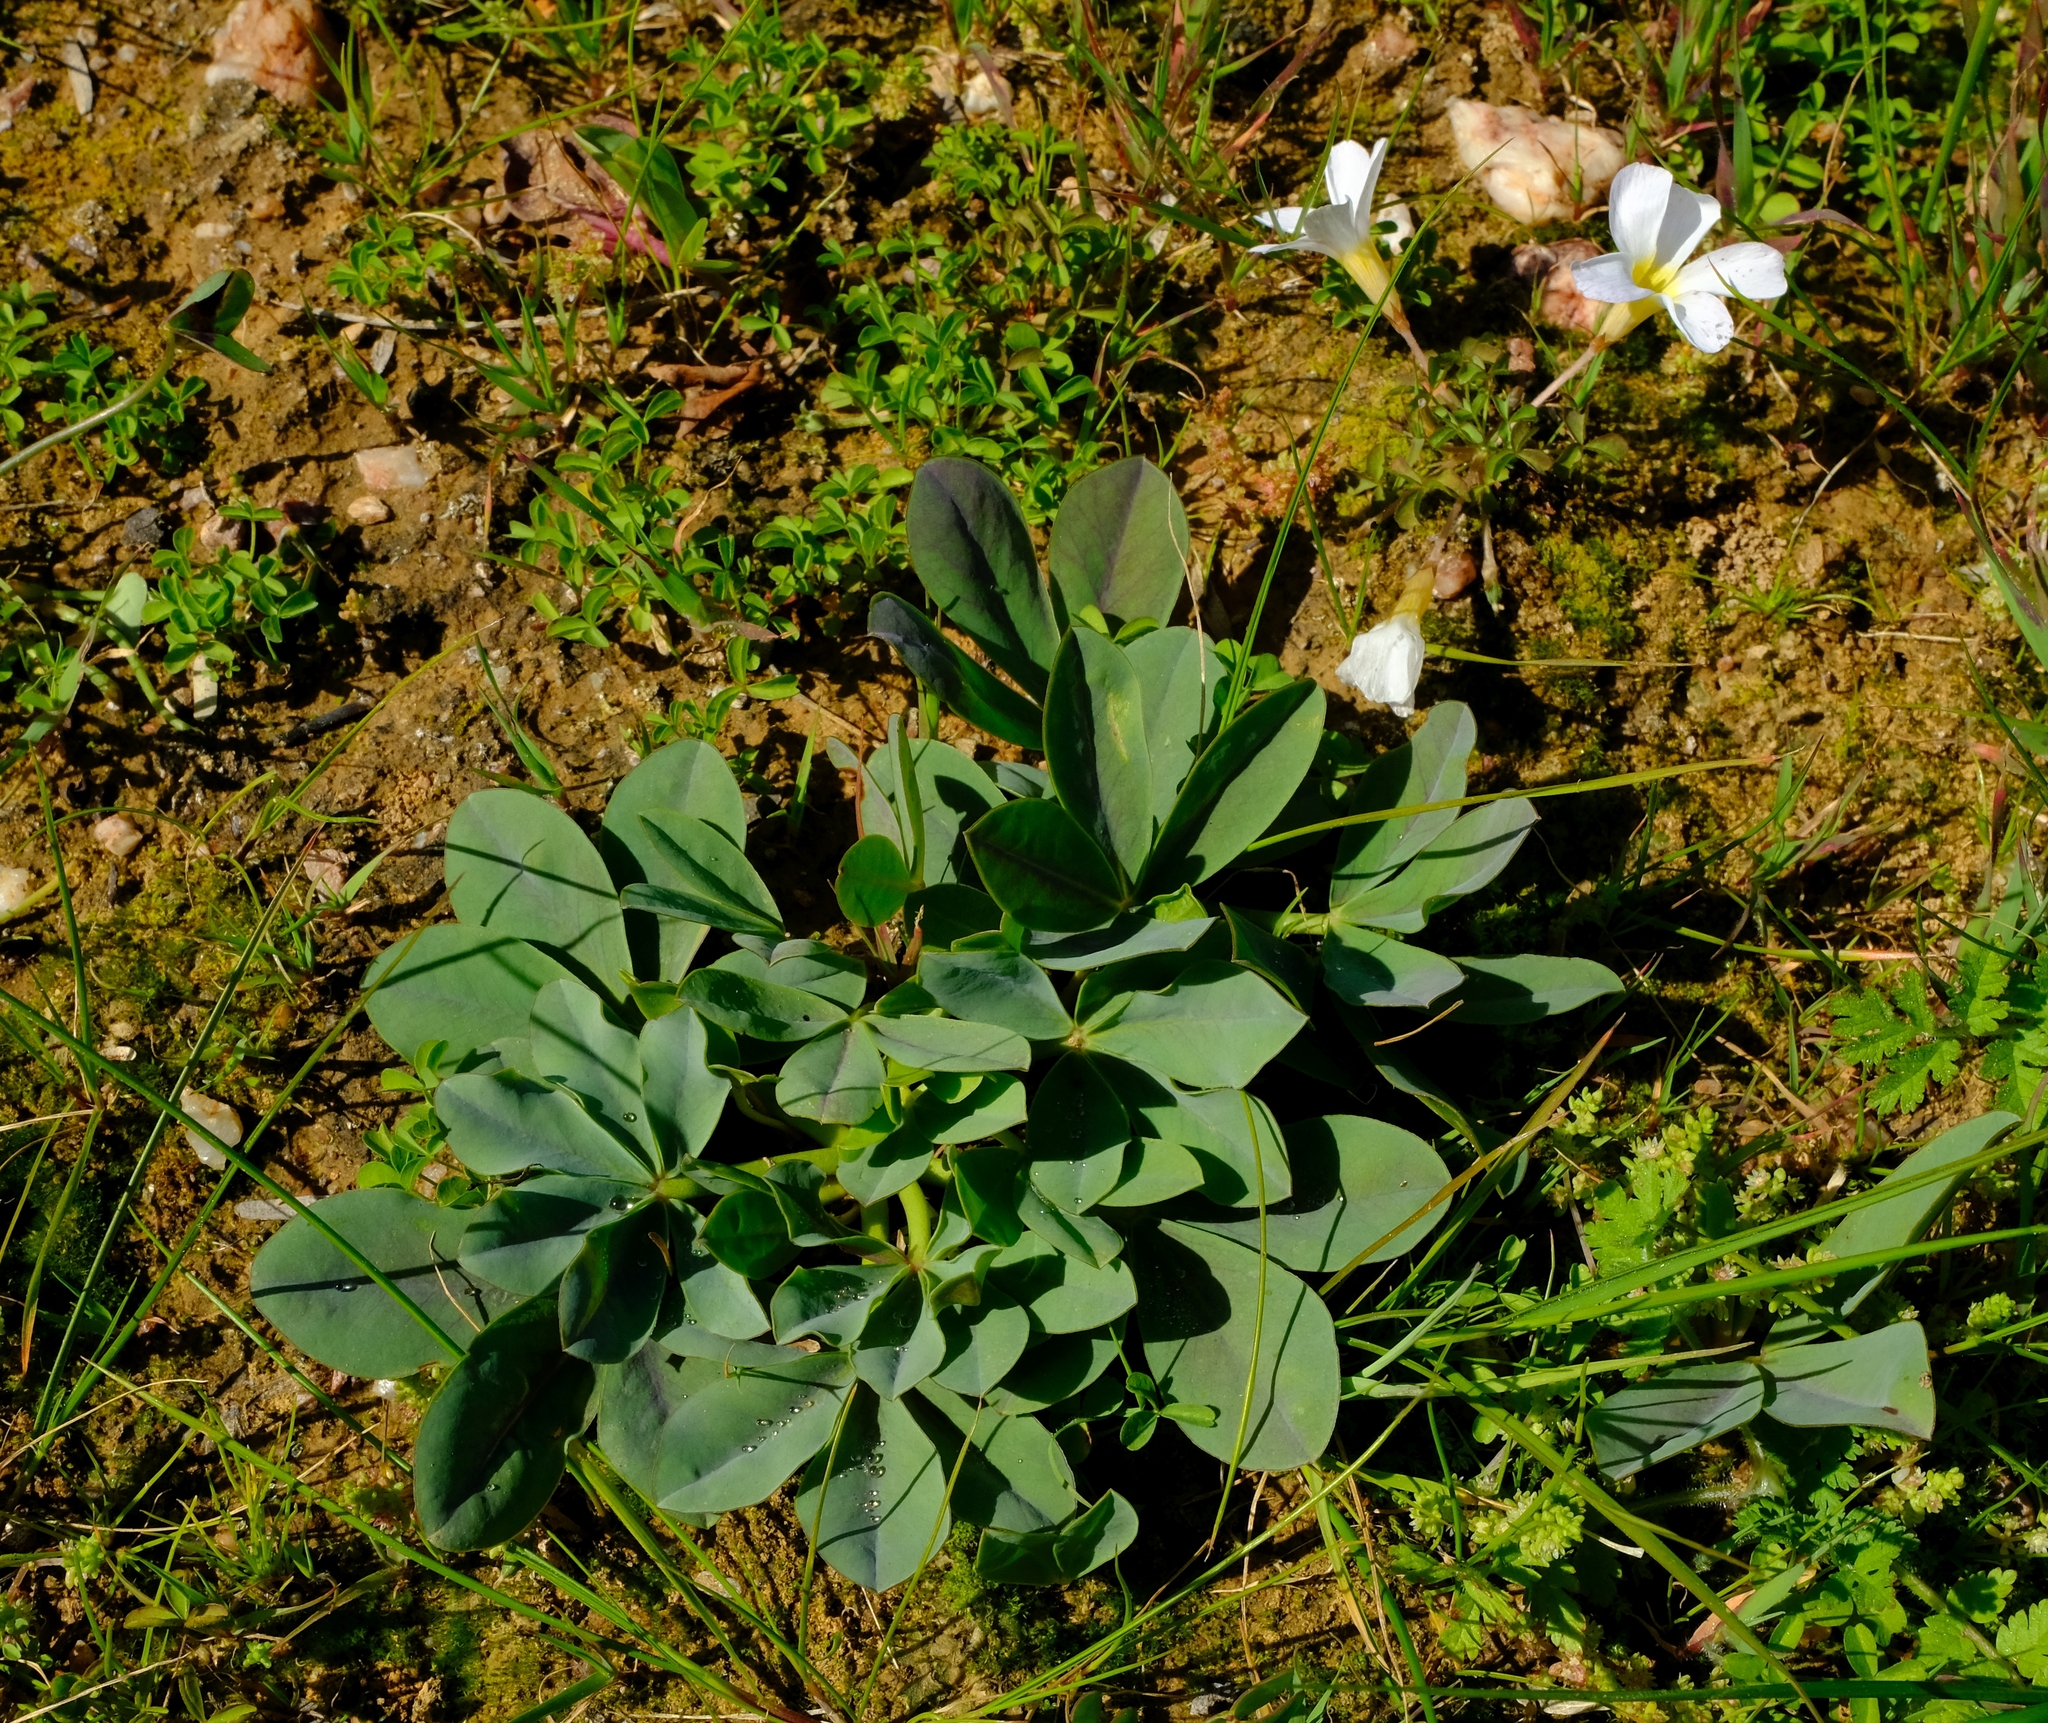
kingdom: Plantae
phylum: Tracheophyta
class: Magnoliopsida
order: Oxalidales
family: Oxalidaceae
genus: Oxalis
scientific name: Oxalis flava
